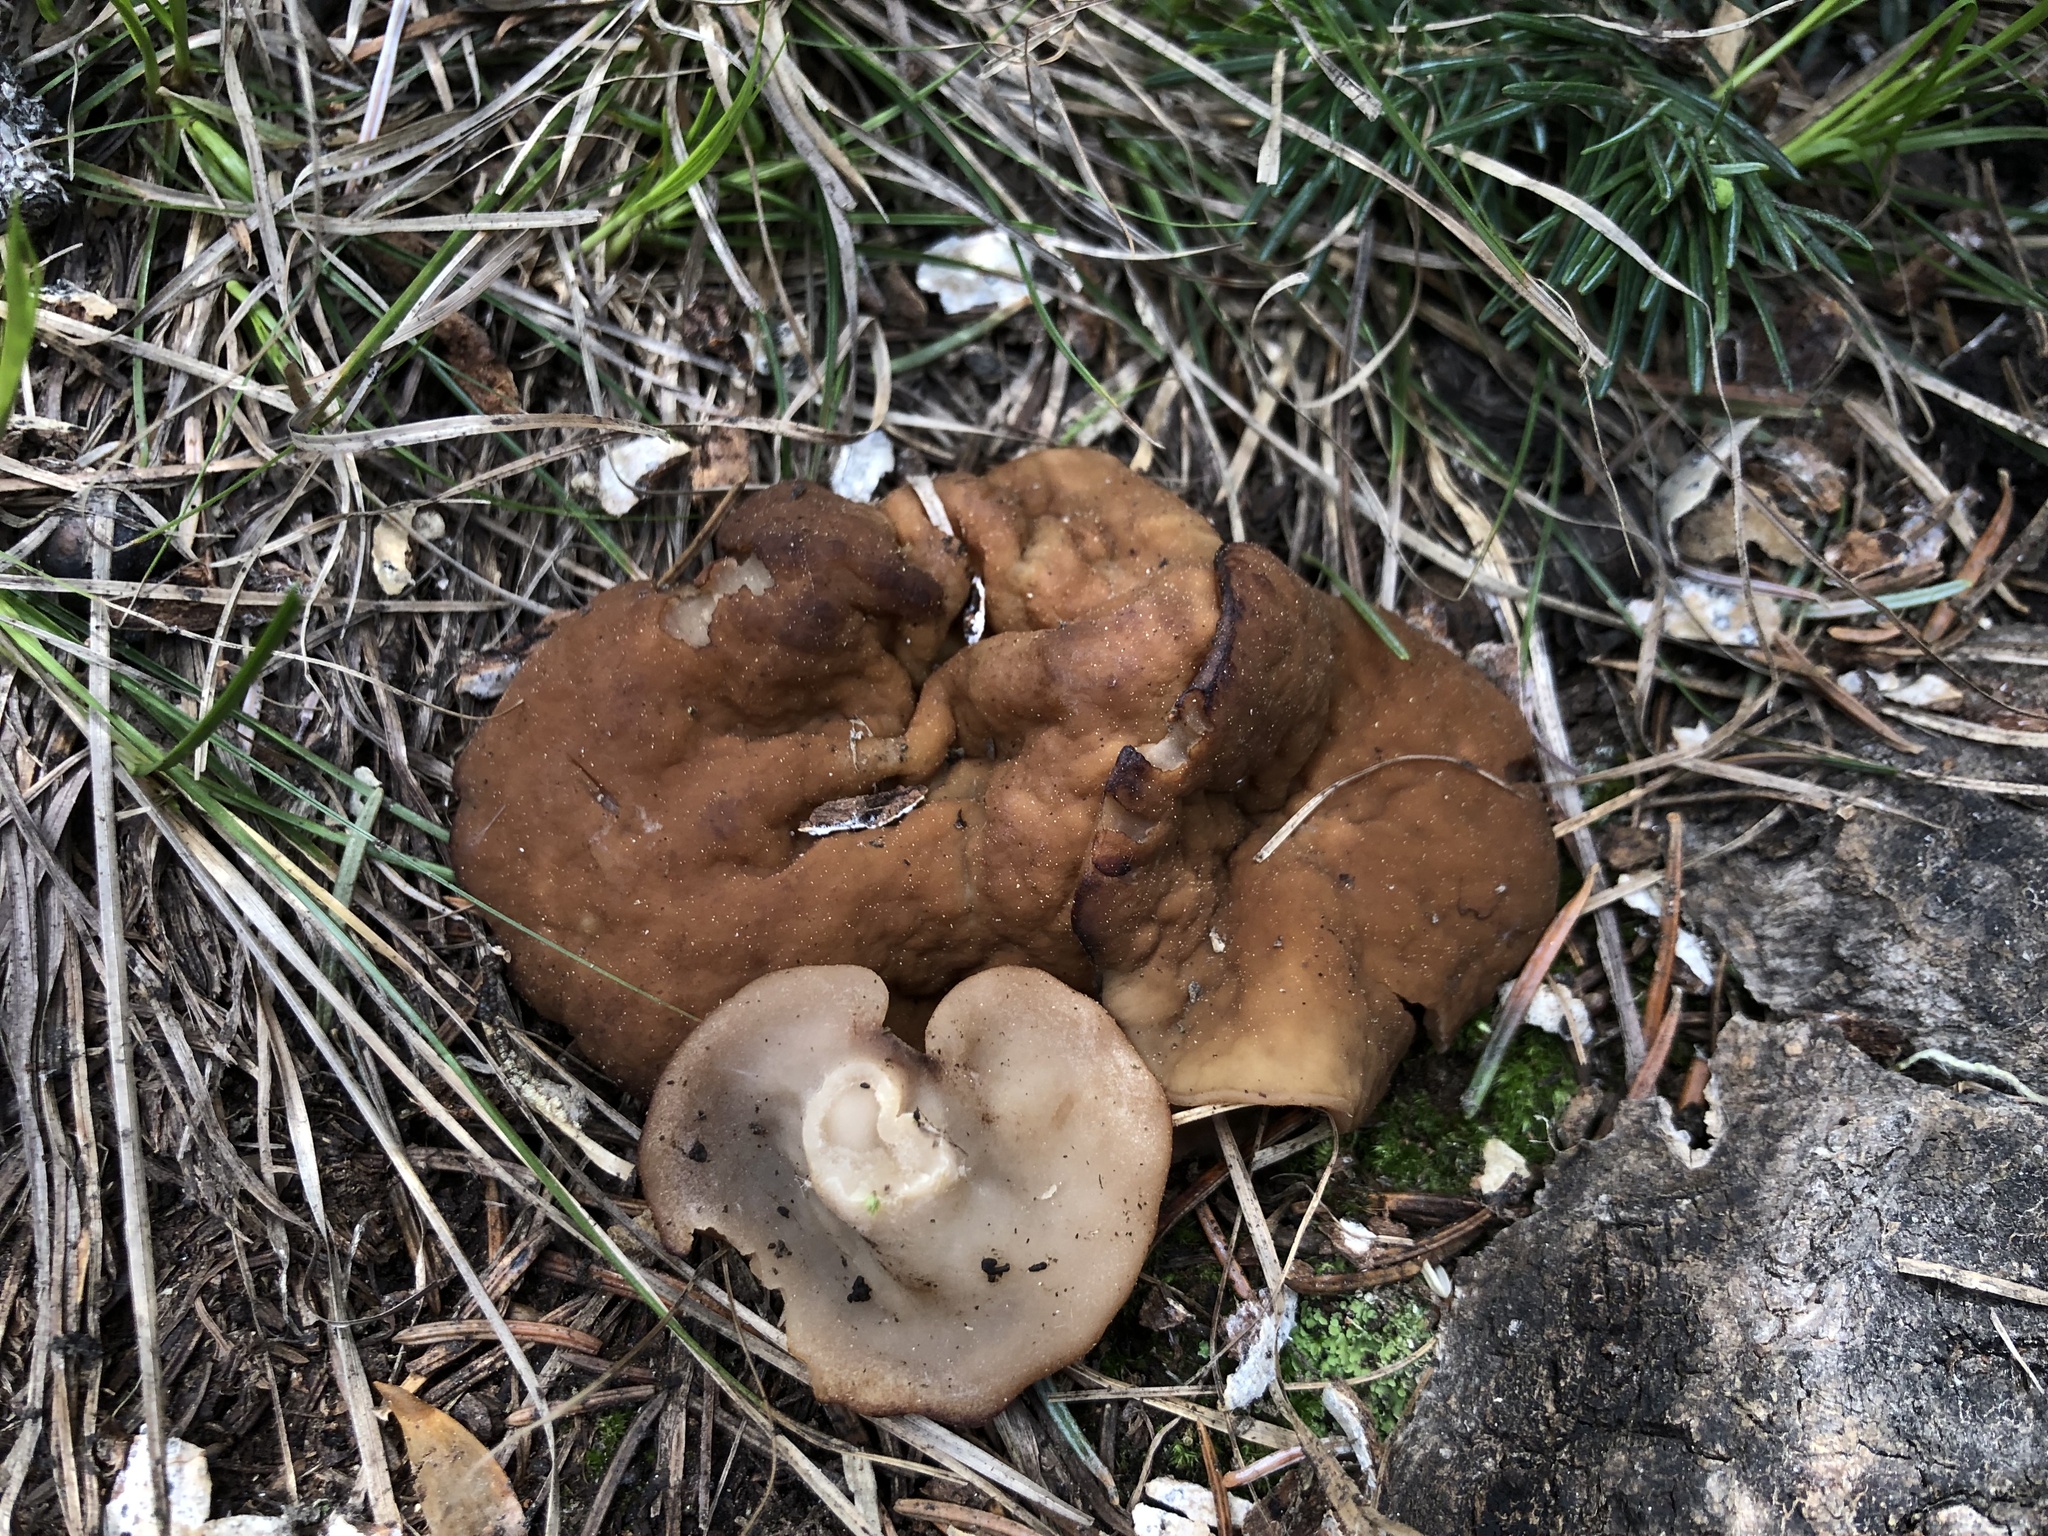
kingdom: Fungi
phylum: Ascomycota
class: Pezizomycetes
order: Pezizales
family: Discinaceae
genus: Gyromitra
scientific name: Gyromitra accumbens
